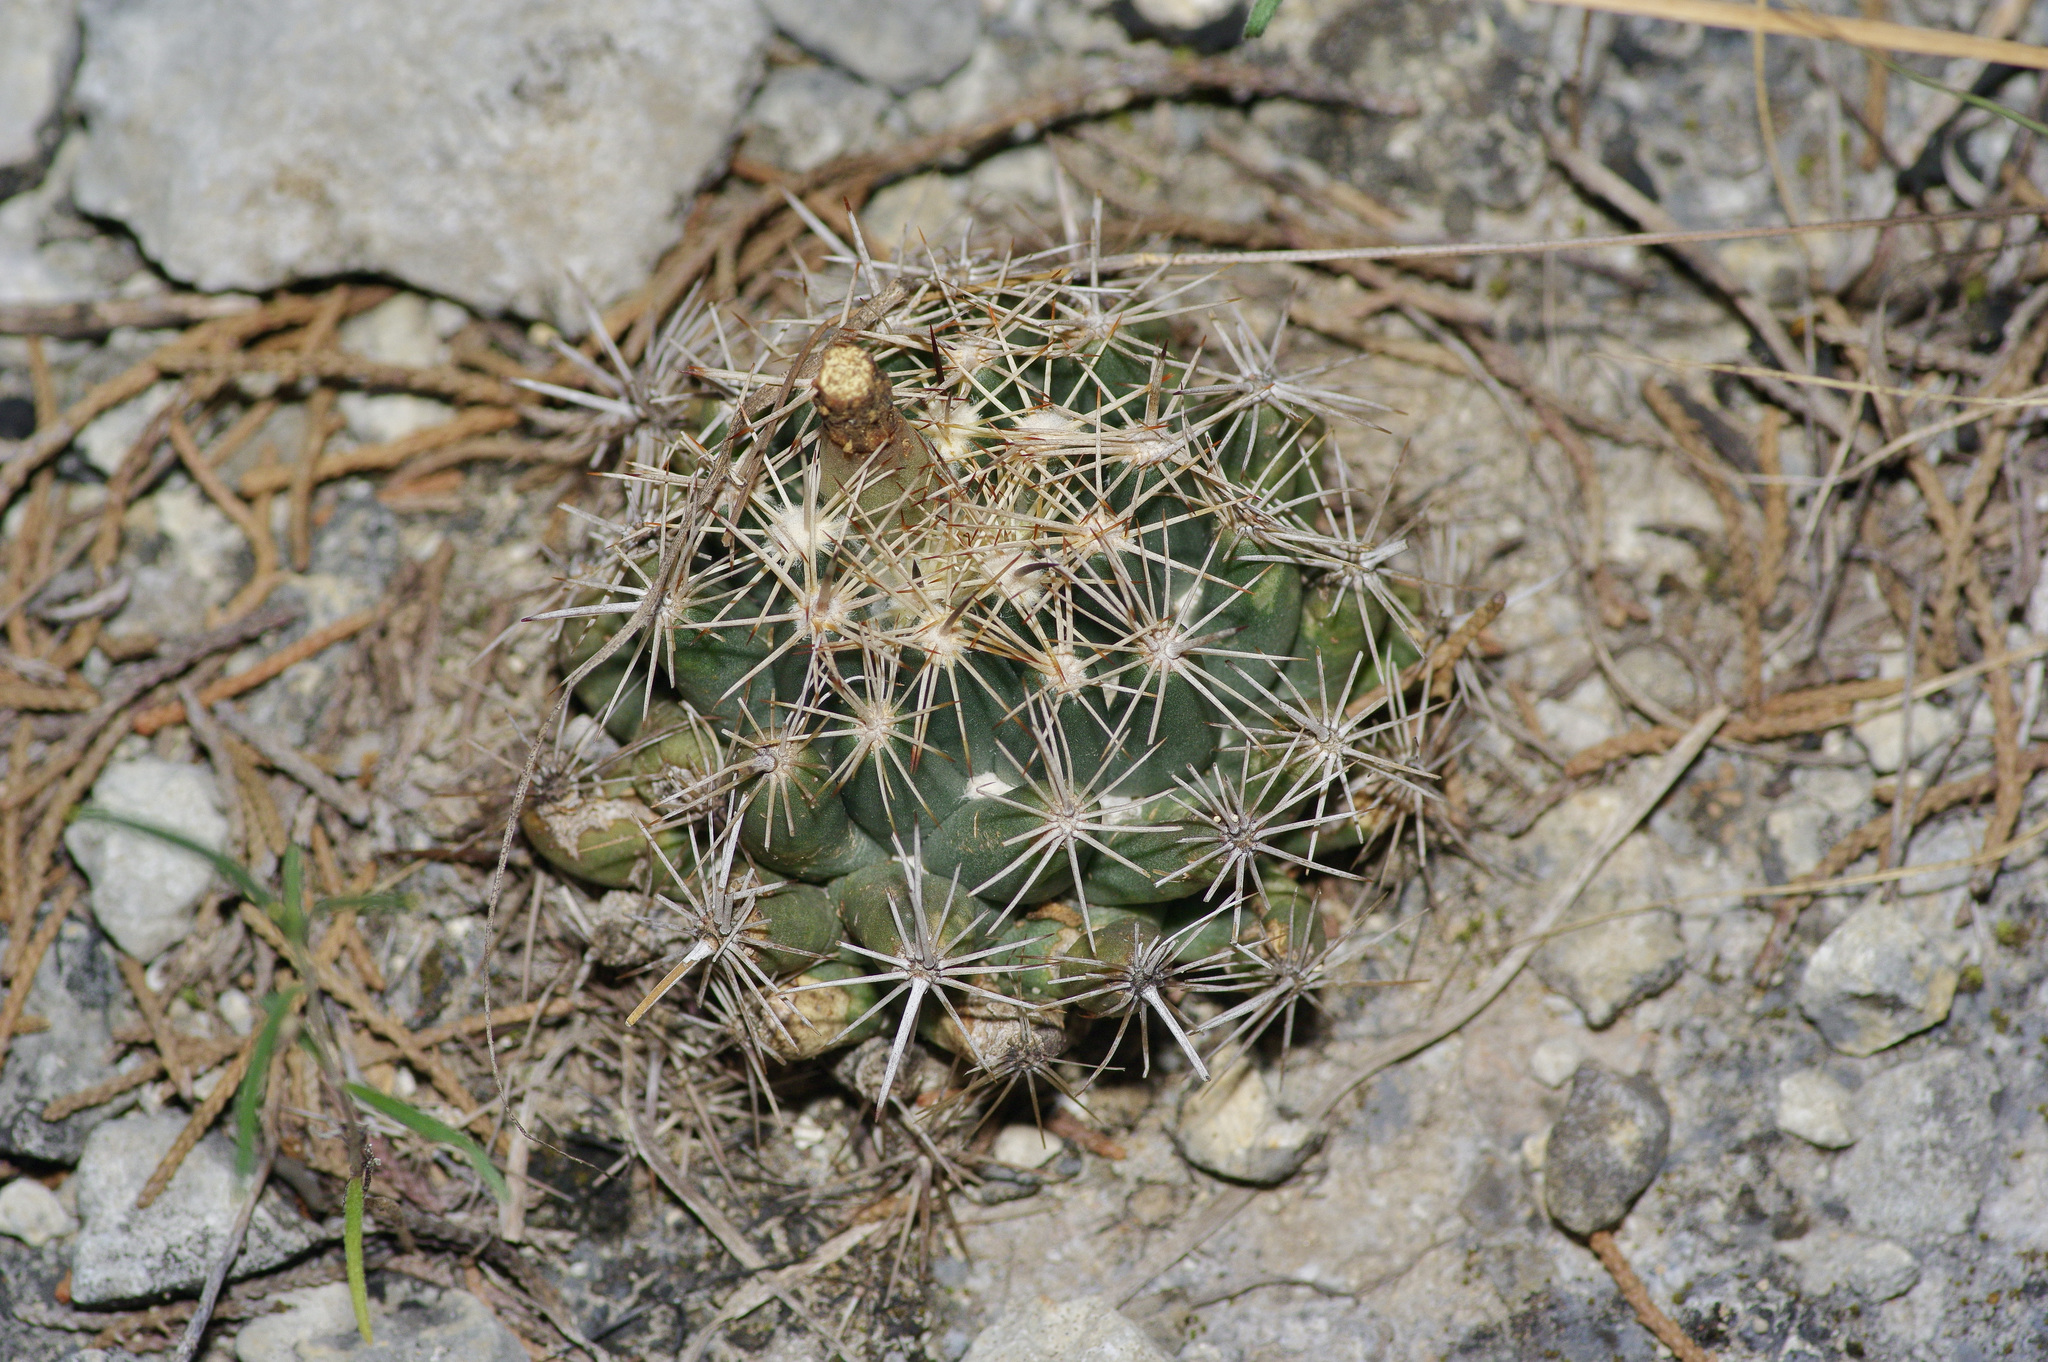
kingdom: Plantae
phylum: Tracheophyta
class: Magnoliopsida
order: Caryophyllales
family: Cactaceae
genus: Coryphantha
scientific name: Coryphantha sulcata
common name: Finger cactus
